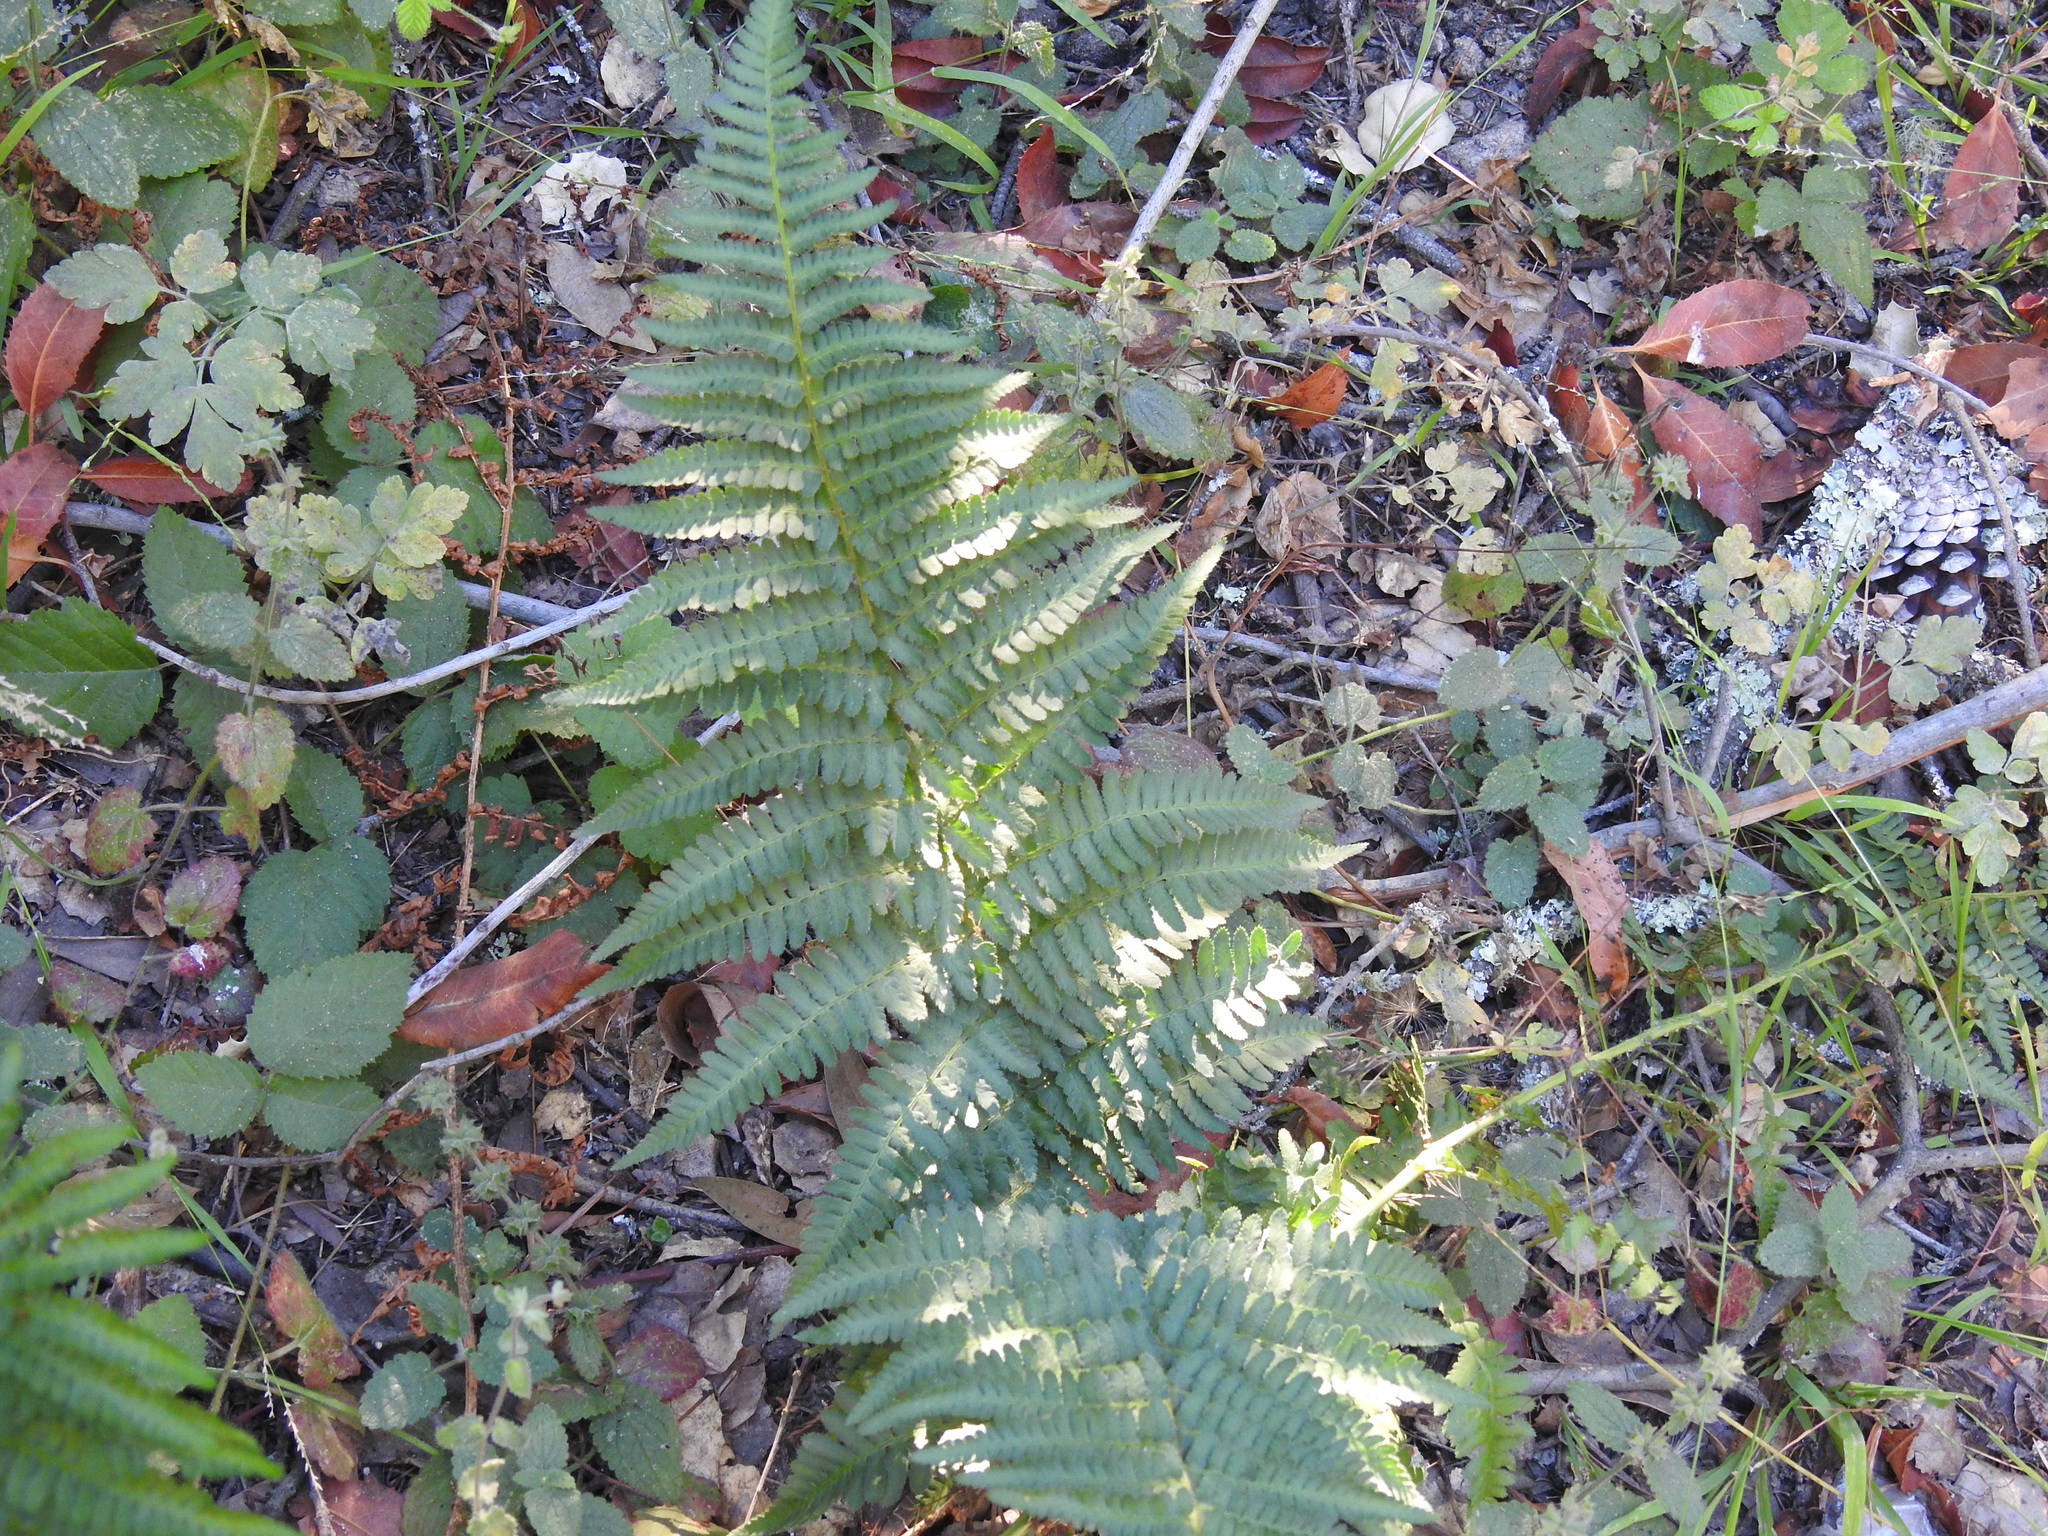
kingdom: Plantae
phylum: Tracheophyta
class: Polypodiopsida
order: Polypodiales
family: Dryopteridaceae
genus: Dryopteris
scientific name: Dryopteris arguta
